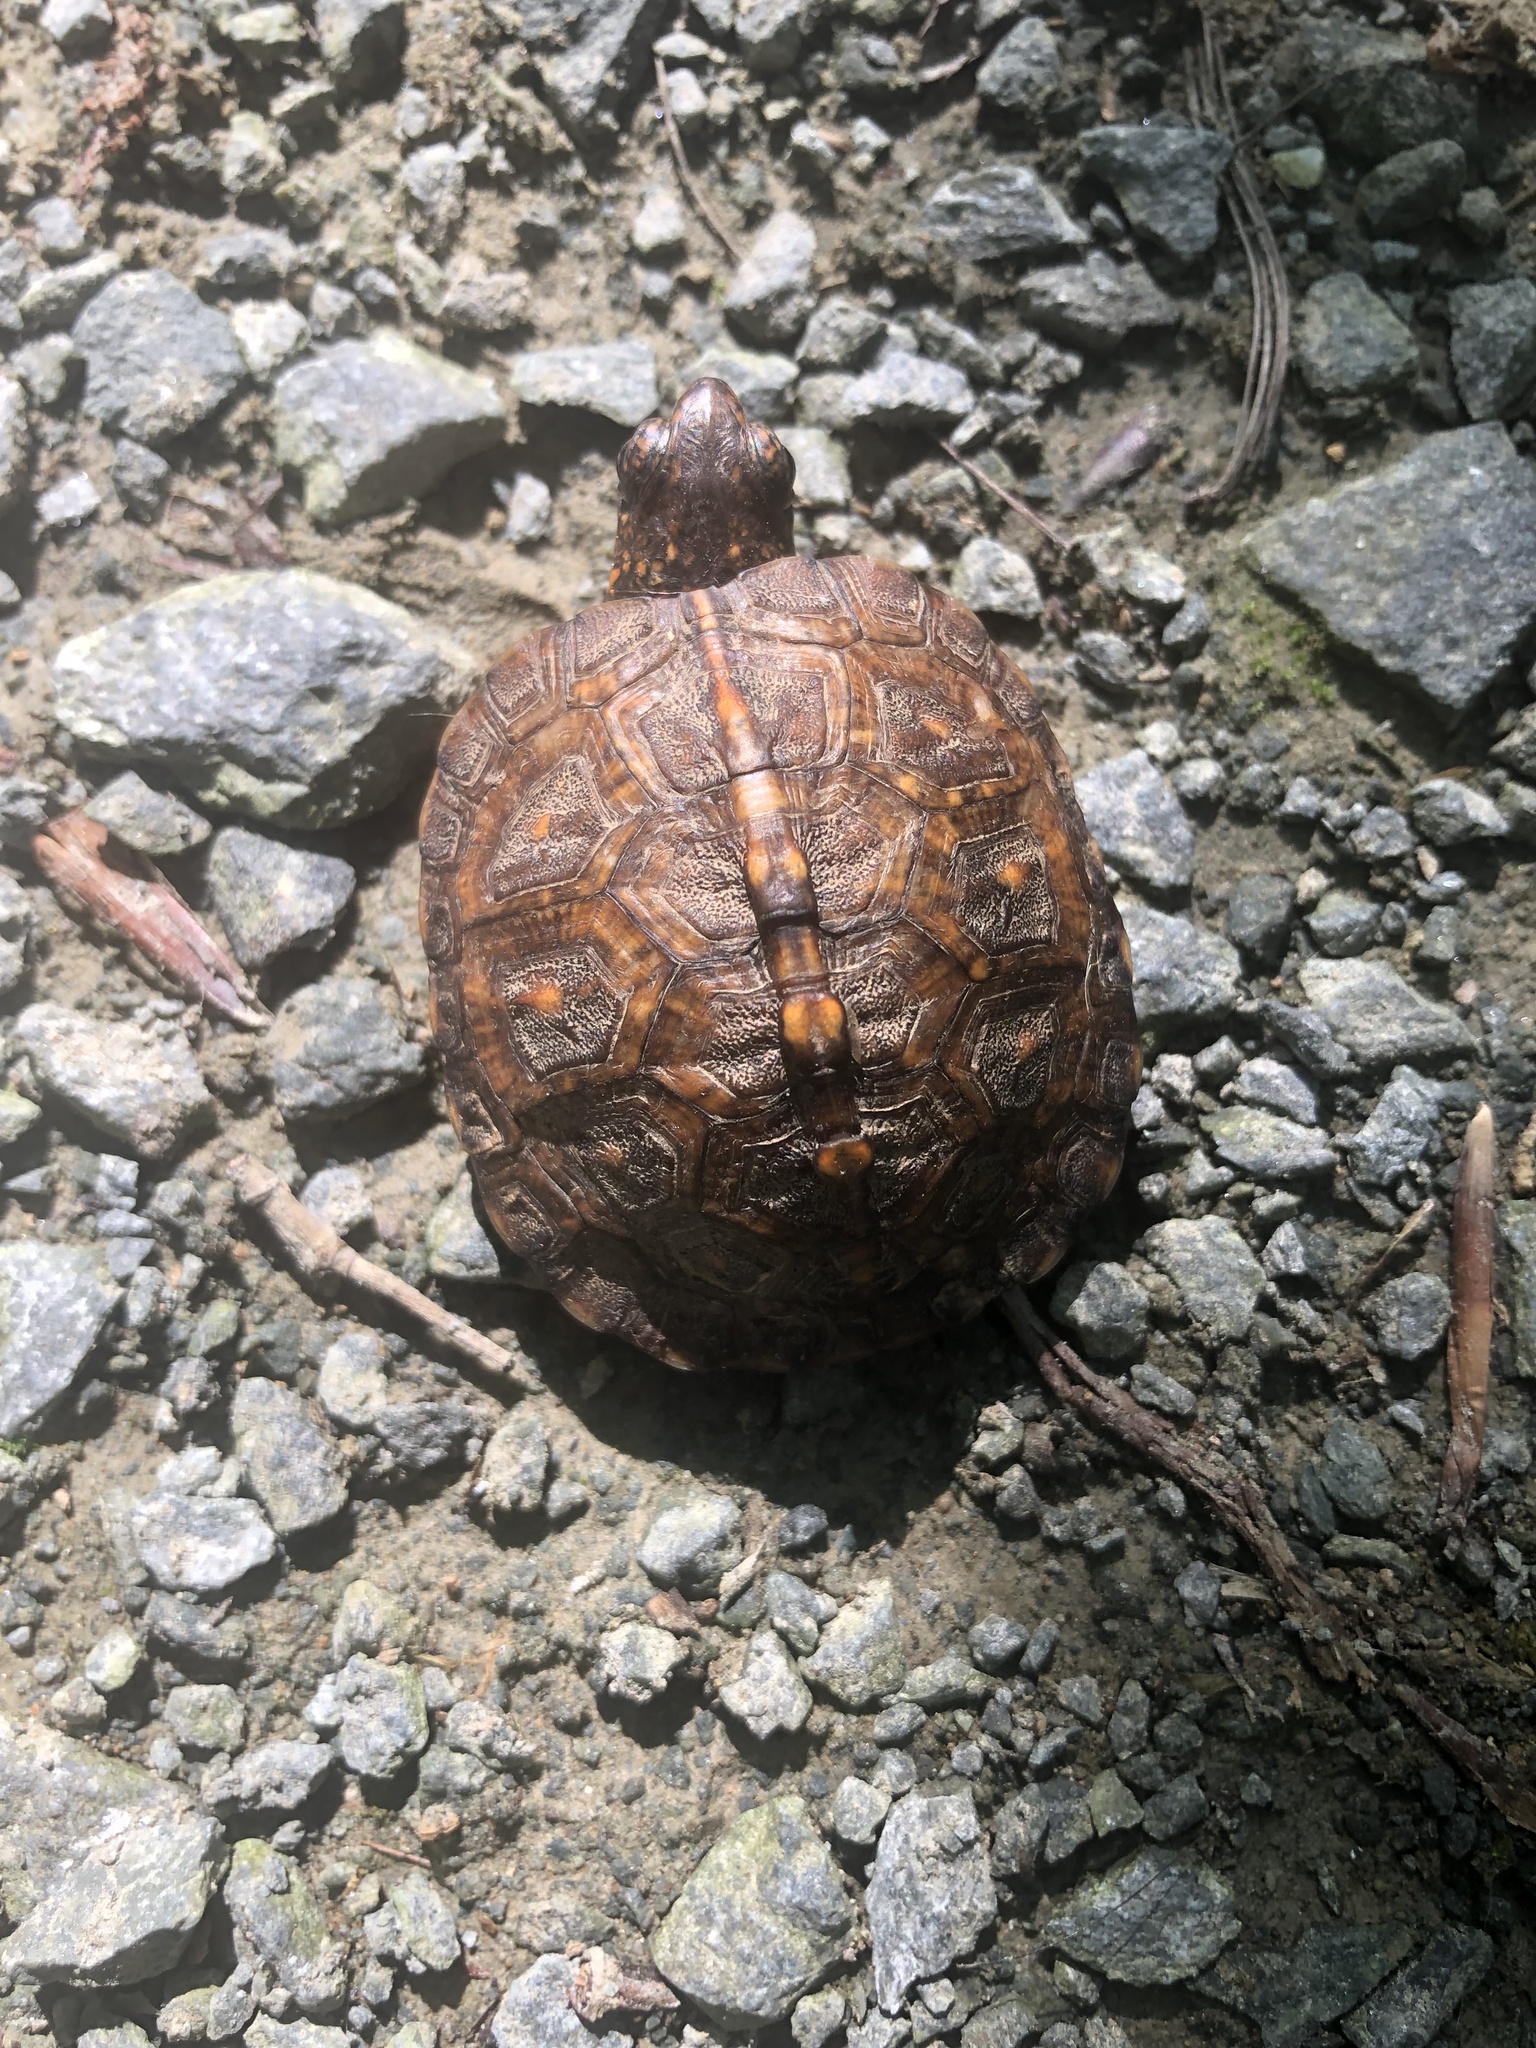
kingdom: Animalia
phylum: Chordata
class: Testudines
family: Emydidae
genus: Terrapene
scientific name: Terrapene carolina
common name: Common box turtle
